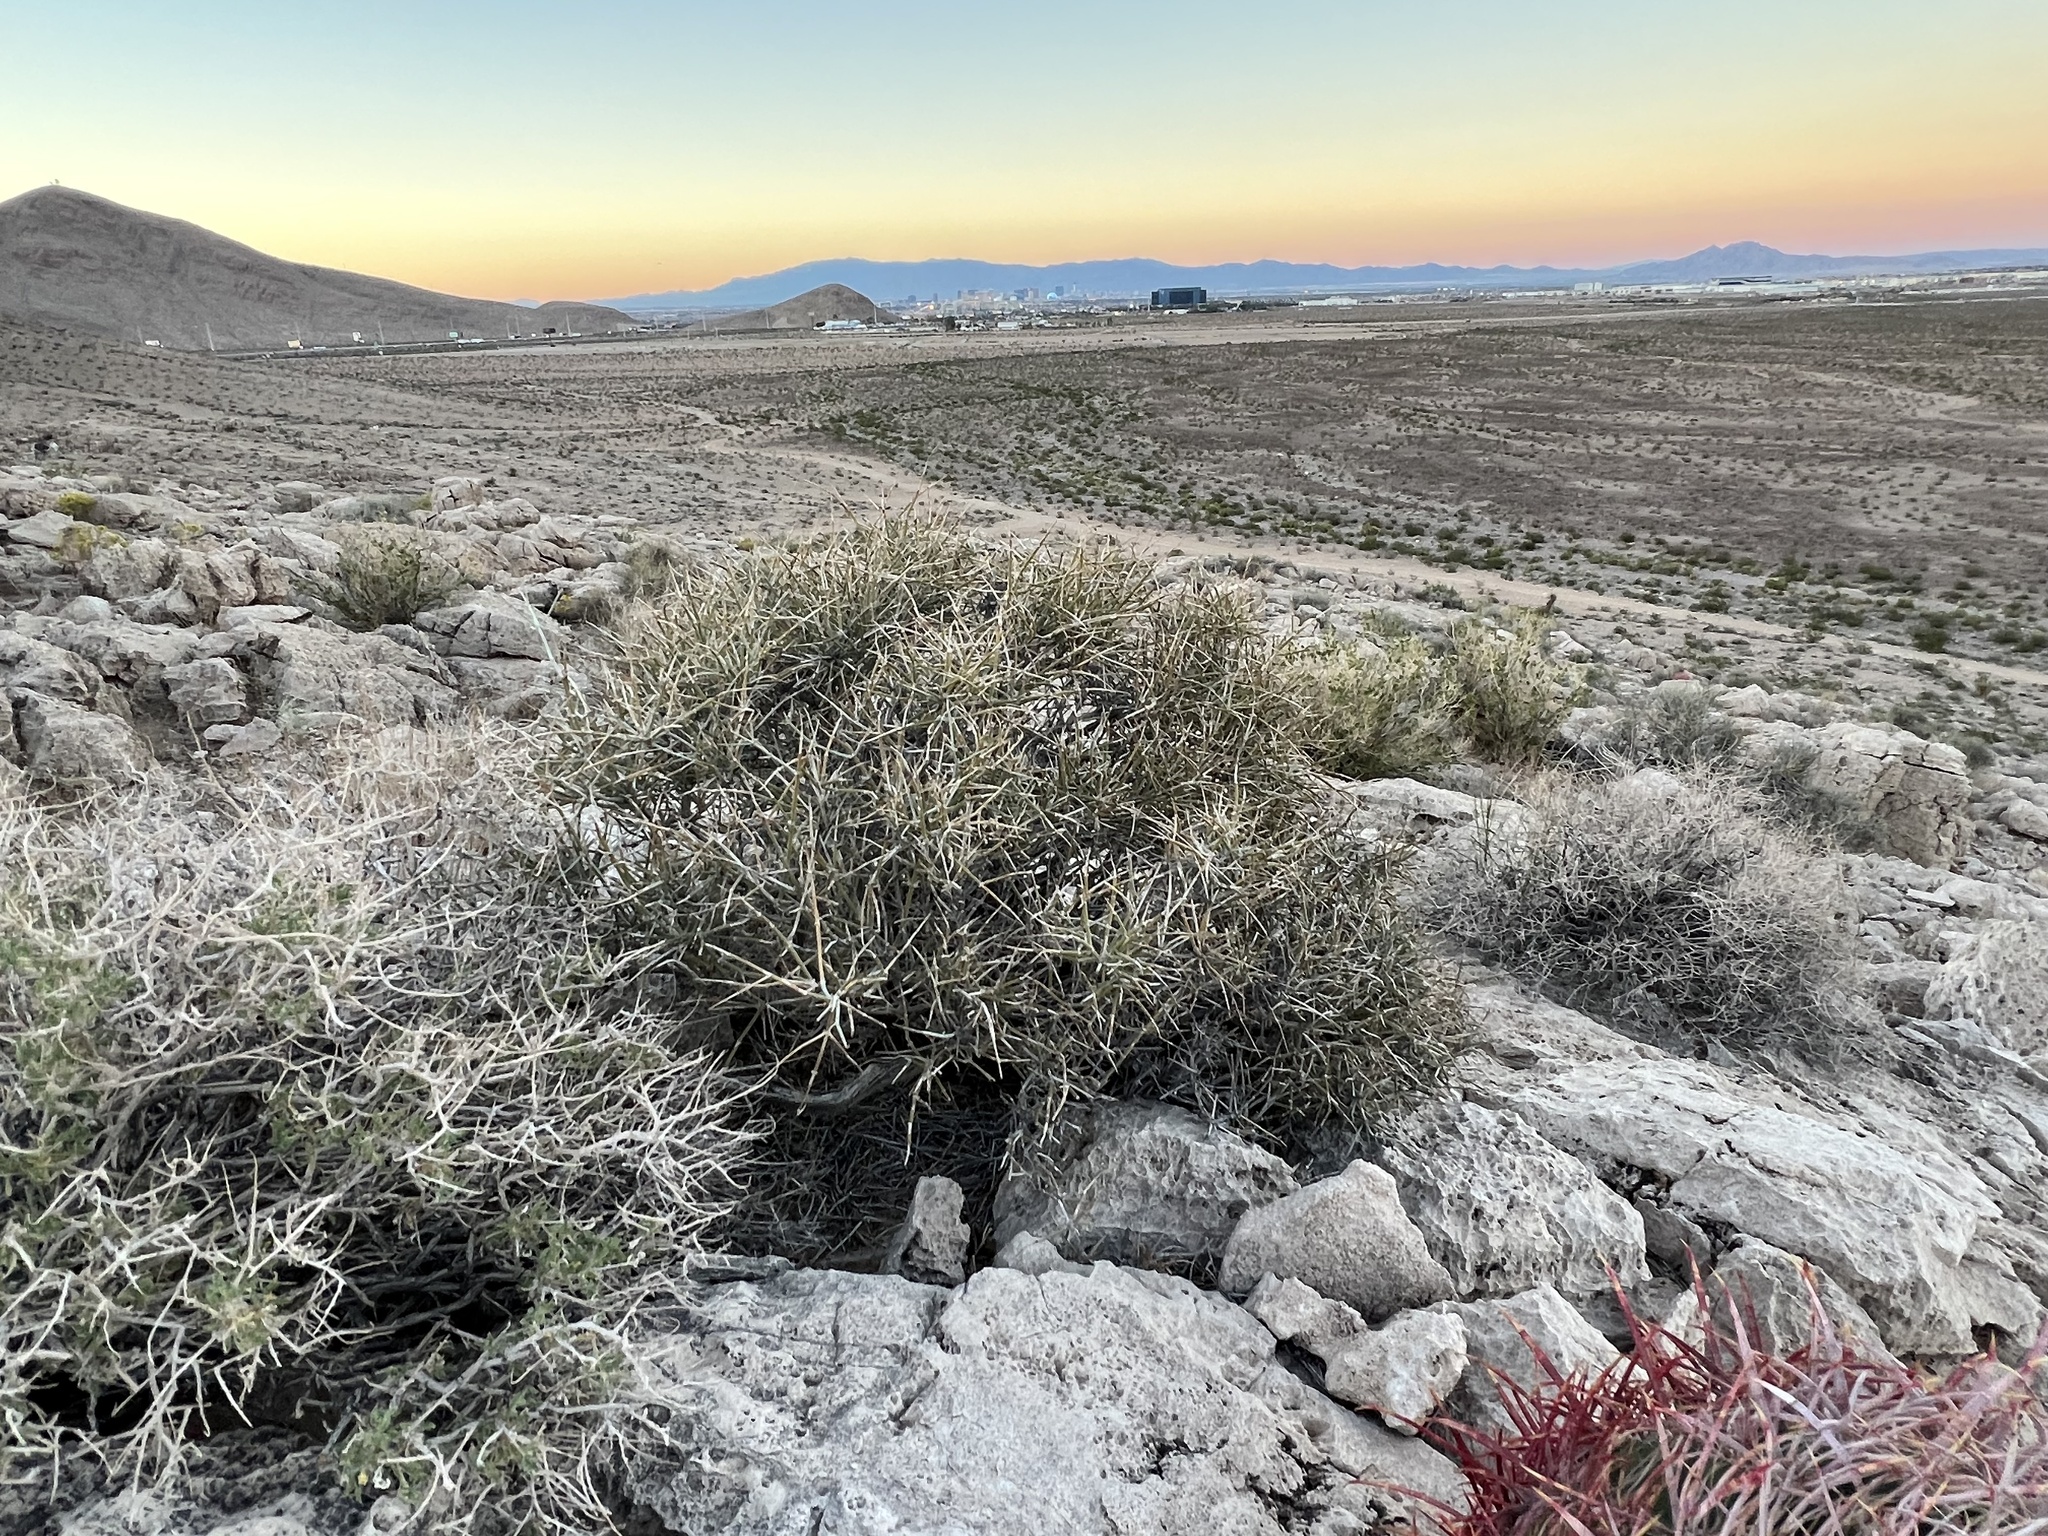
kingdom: Plantae
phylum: Tracheophyta
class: Gnetopsida
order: Ephedrales
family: Ephedraceae
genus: Ephedra
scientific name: Ephedra nevadensis
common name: Gray ephedra
